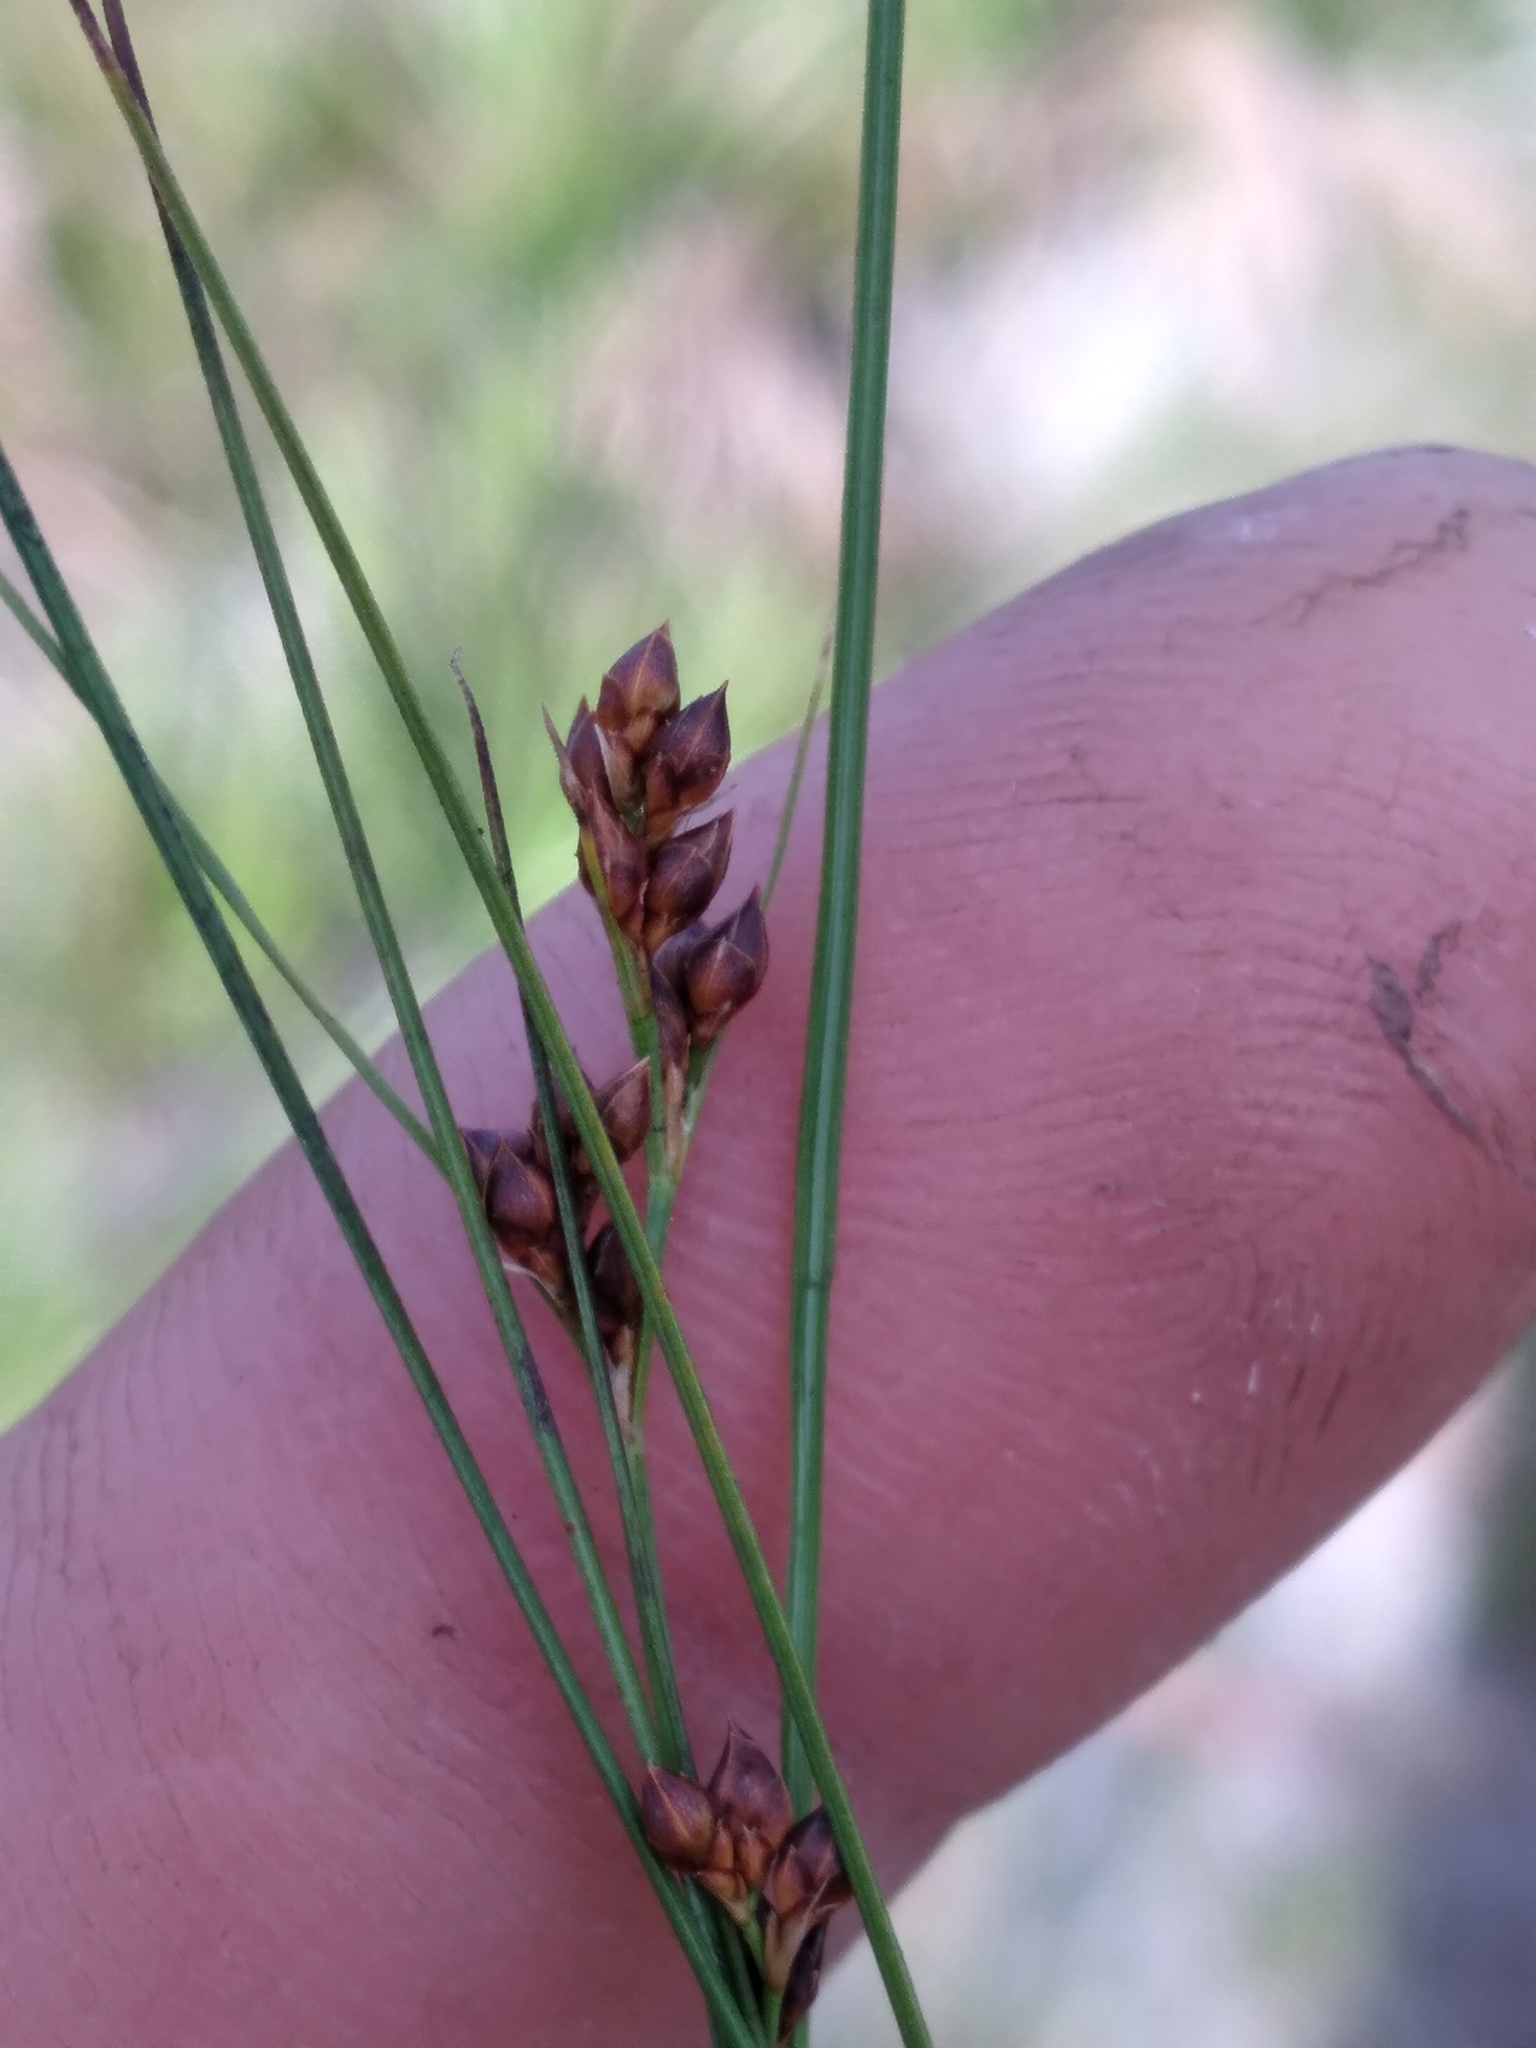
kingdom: Plantae
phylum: Tracheophyta
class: Liliopsida
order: Poales
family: Cyperaceae
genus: Rhynchospora
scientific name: Rhynchospora plumosa
